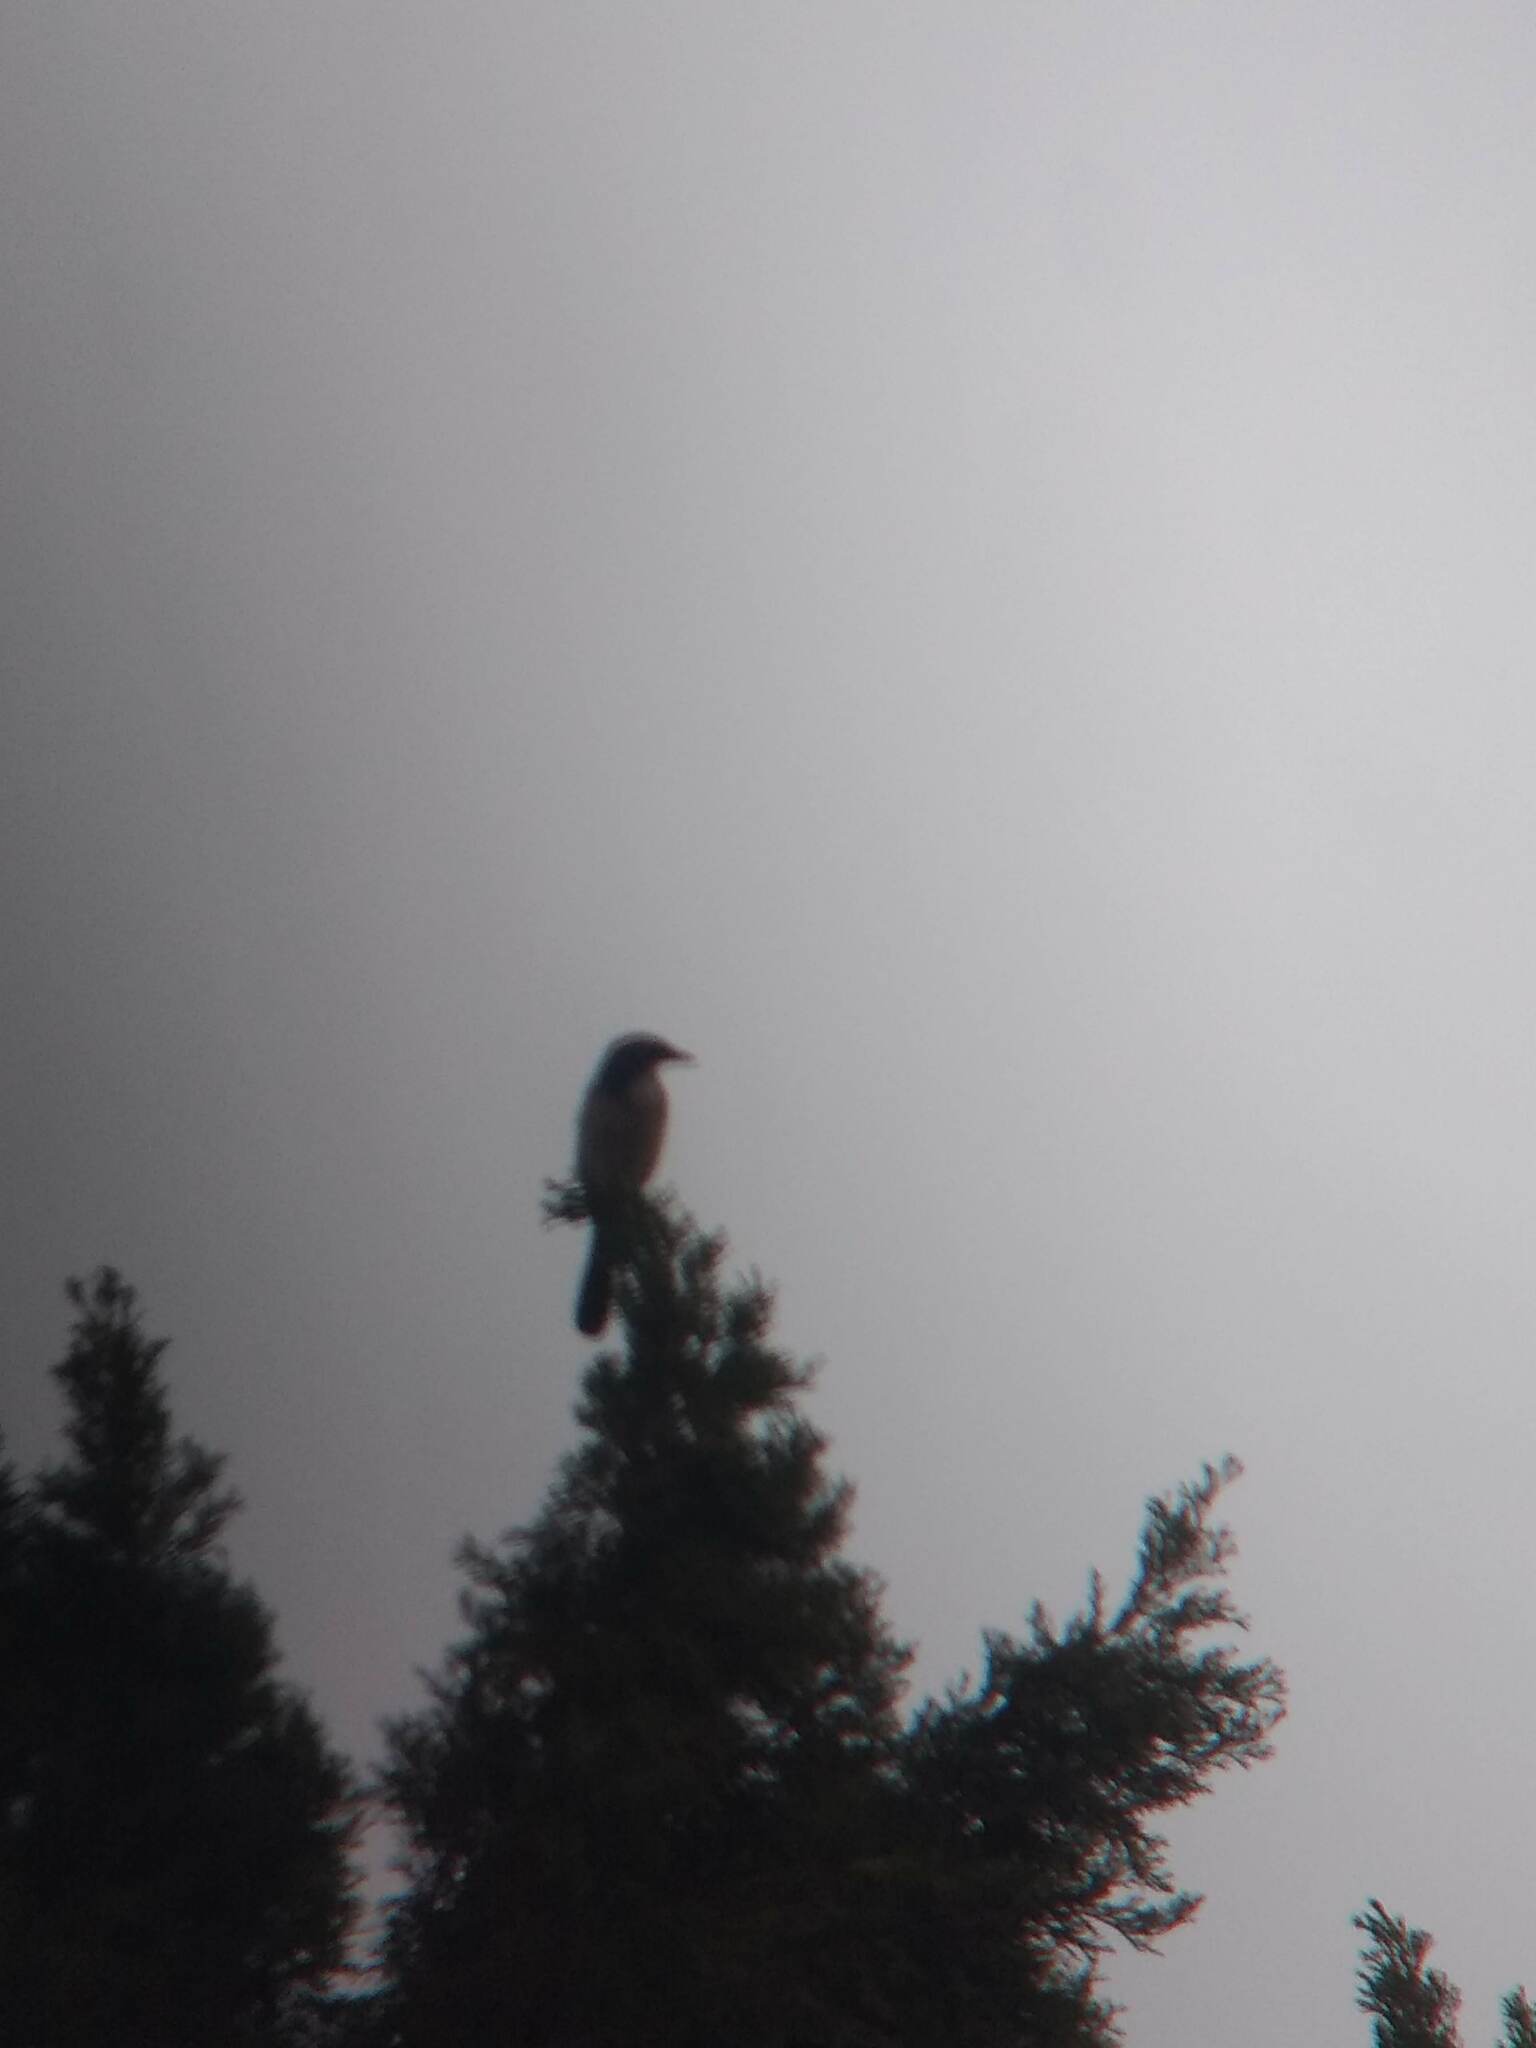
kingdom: Animalia
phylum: Chordata
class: Aves
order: Passeriformes
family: Corvidae
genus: Aphelocoma
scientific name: Aphelocoma californica
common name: California scrub-jay
